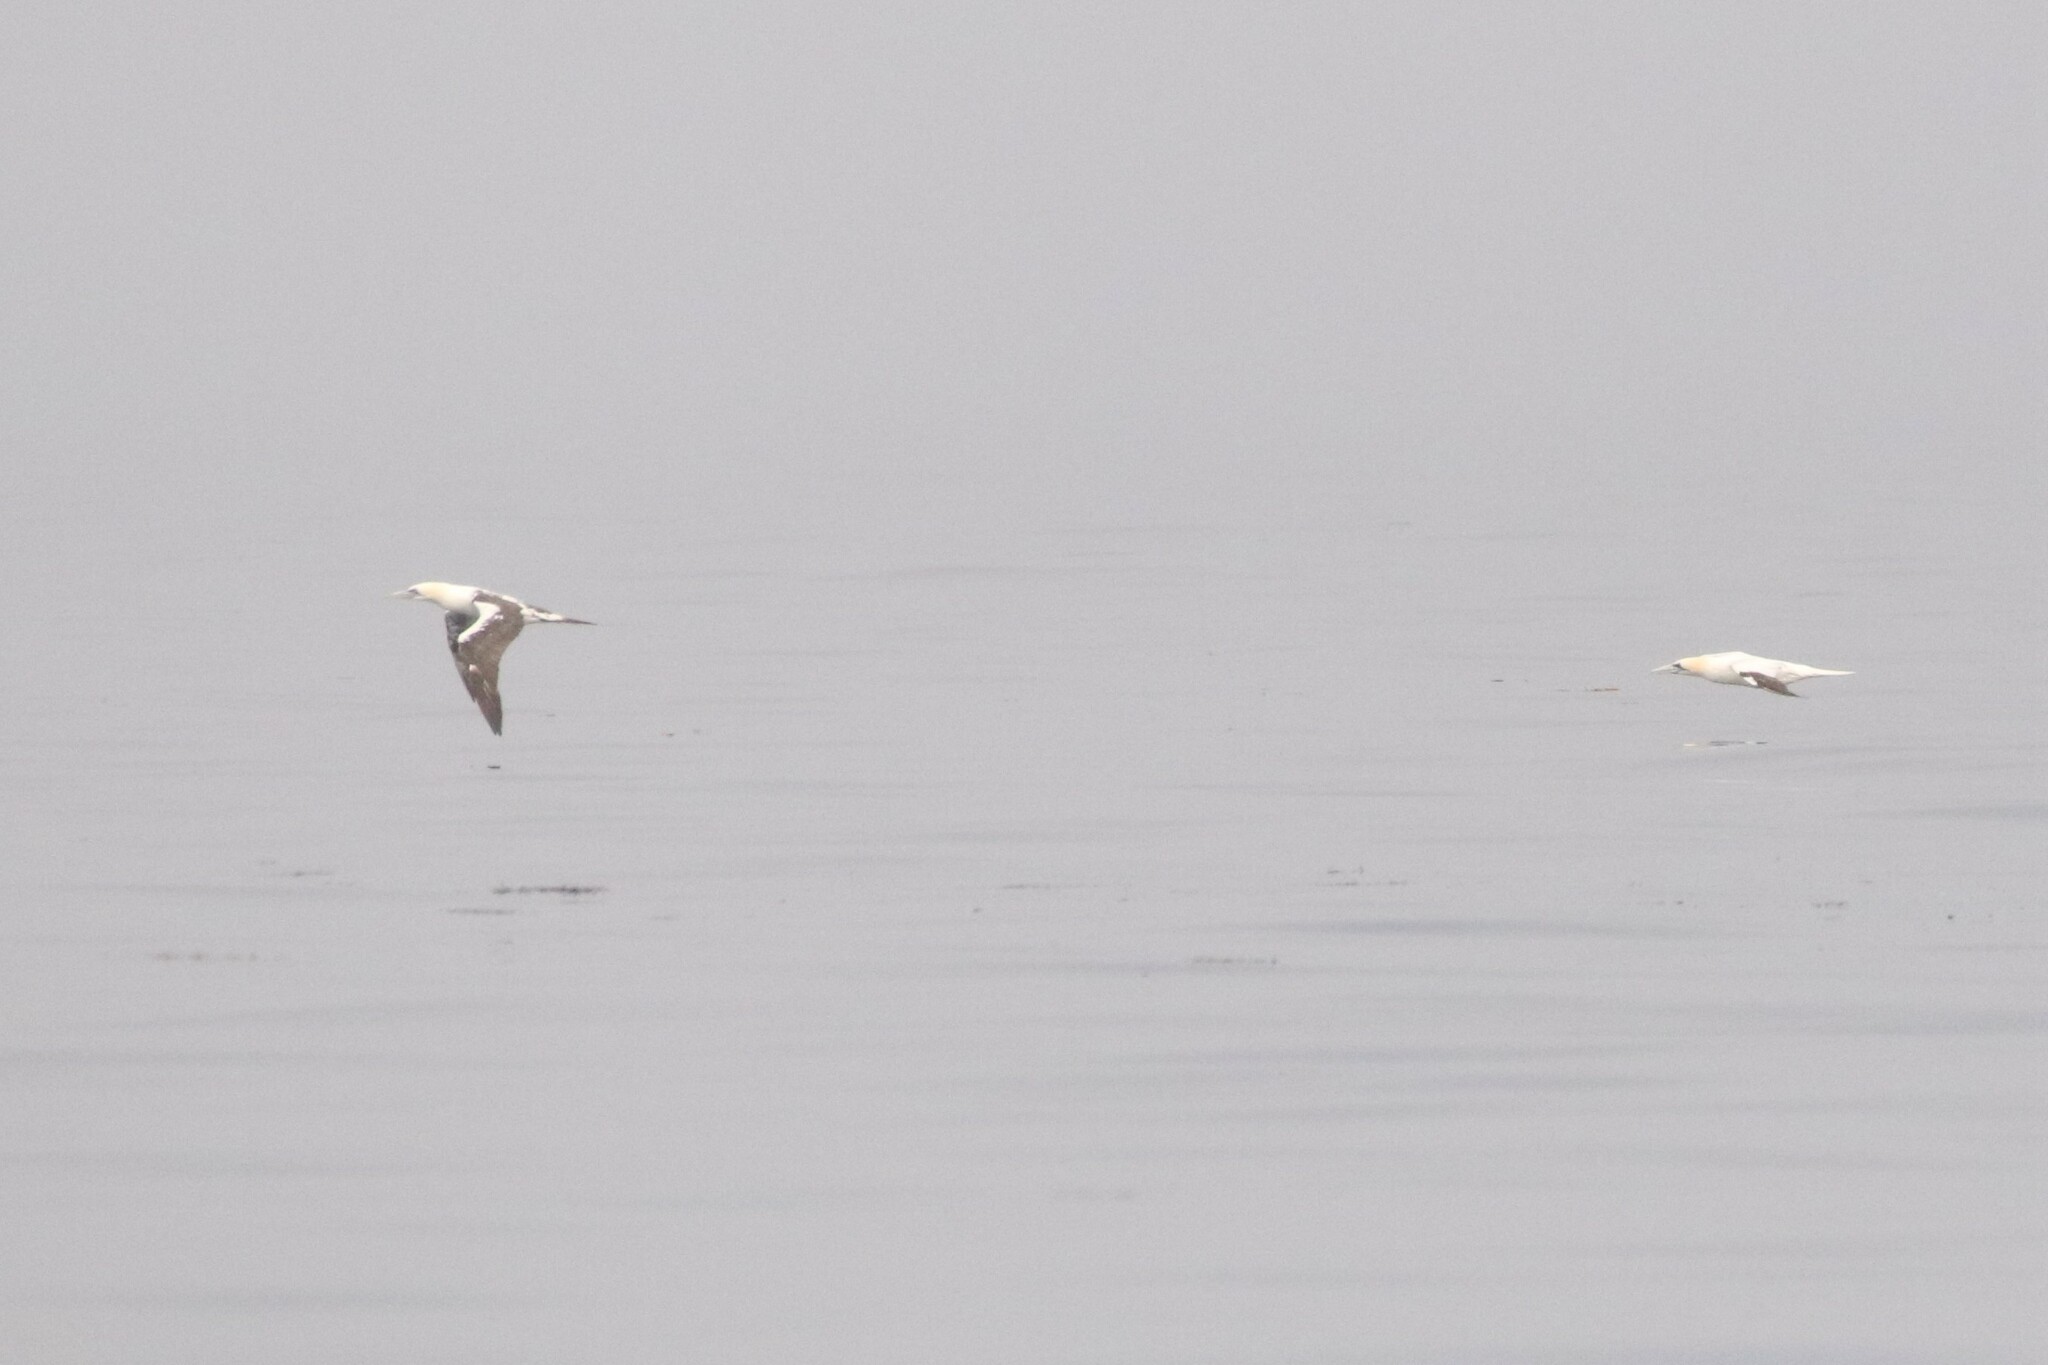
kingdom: Animalia
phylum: Chordata
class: Aves
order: Suliformes
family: Sulidae
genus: Morus
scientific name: Morus bassanus
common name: Northern gannet
